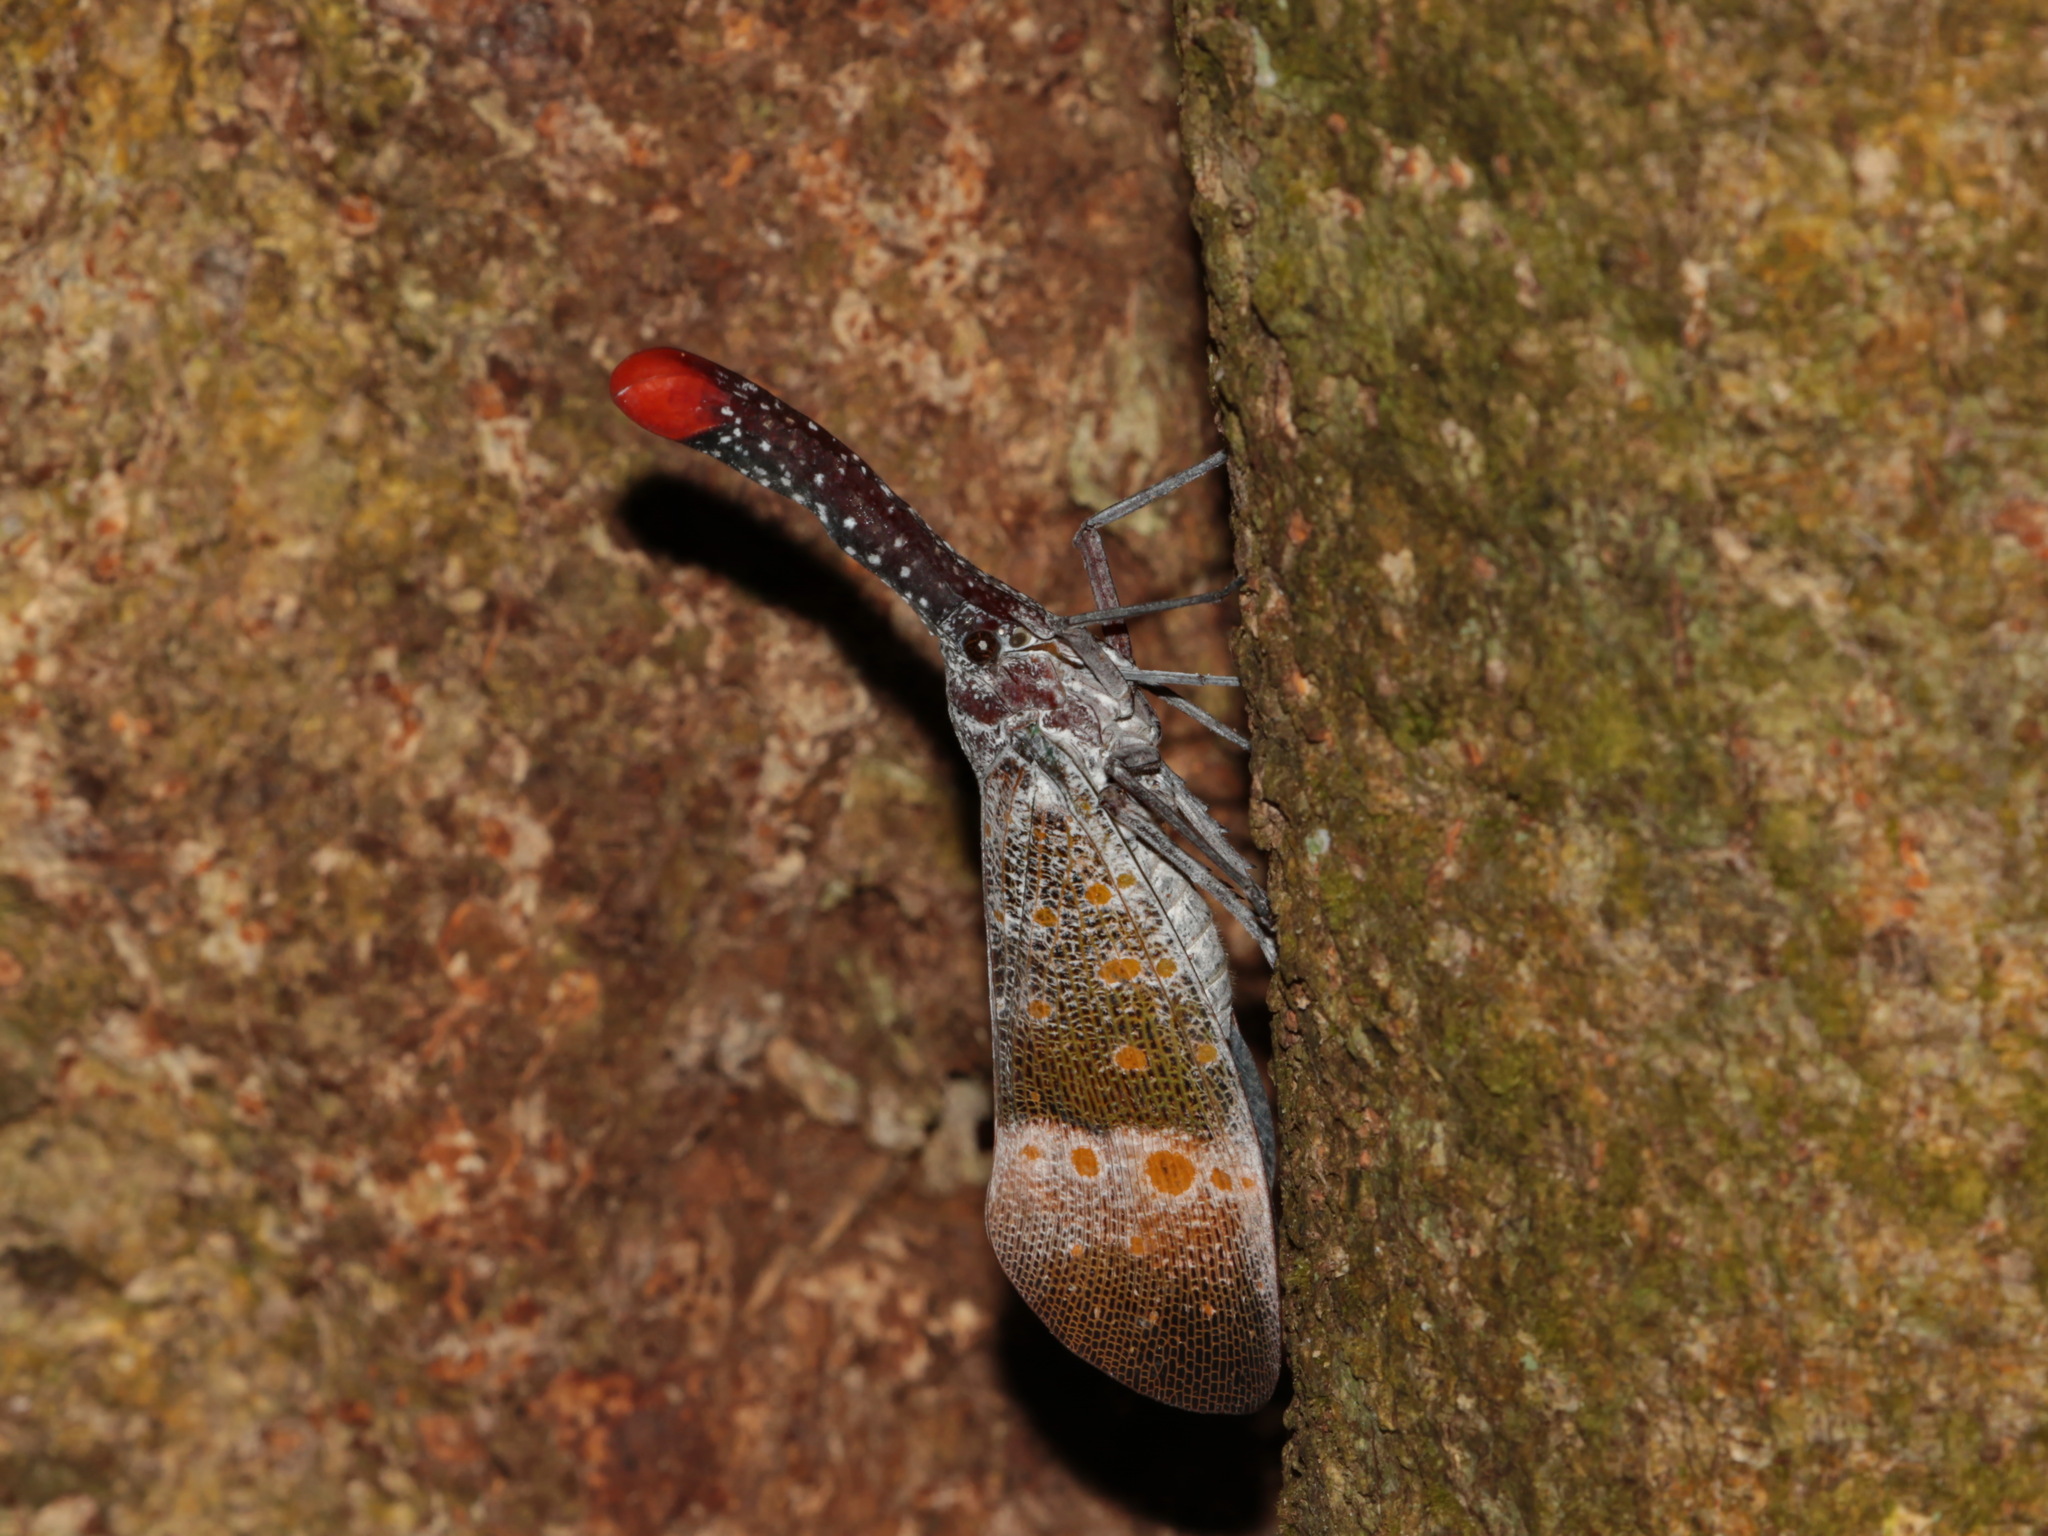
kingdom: Animalia
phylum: Arthropoda
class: Insecta
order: Hemiptera
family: Fulgoridae
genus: Pyrops
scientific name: Pyrops pyrorhynchus
